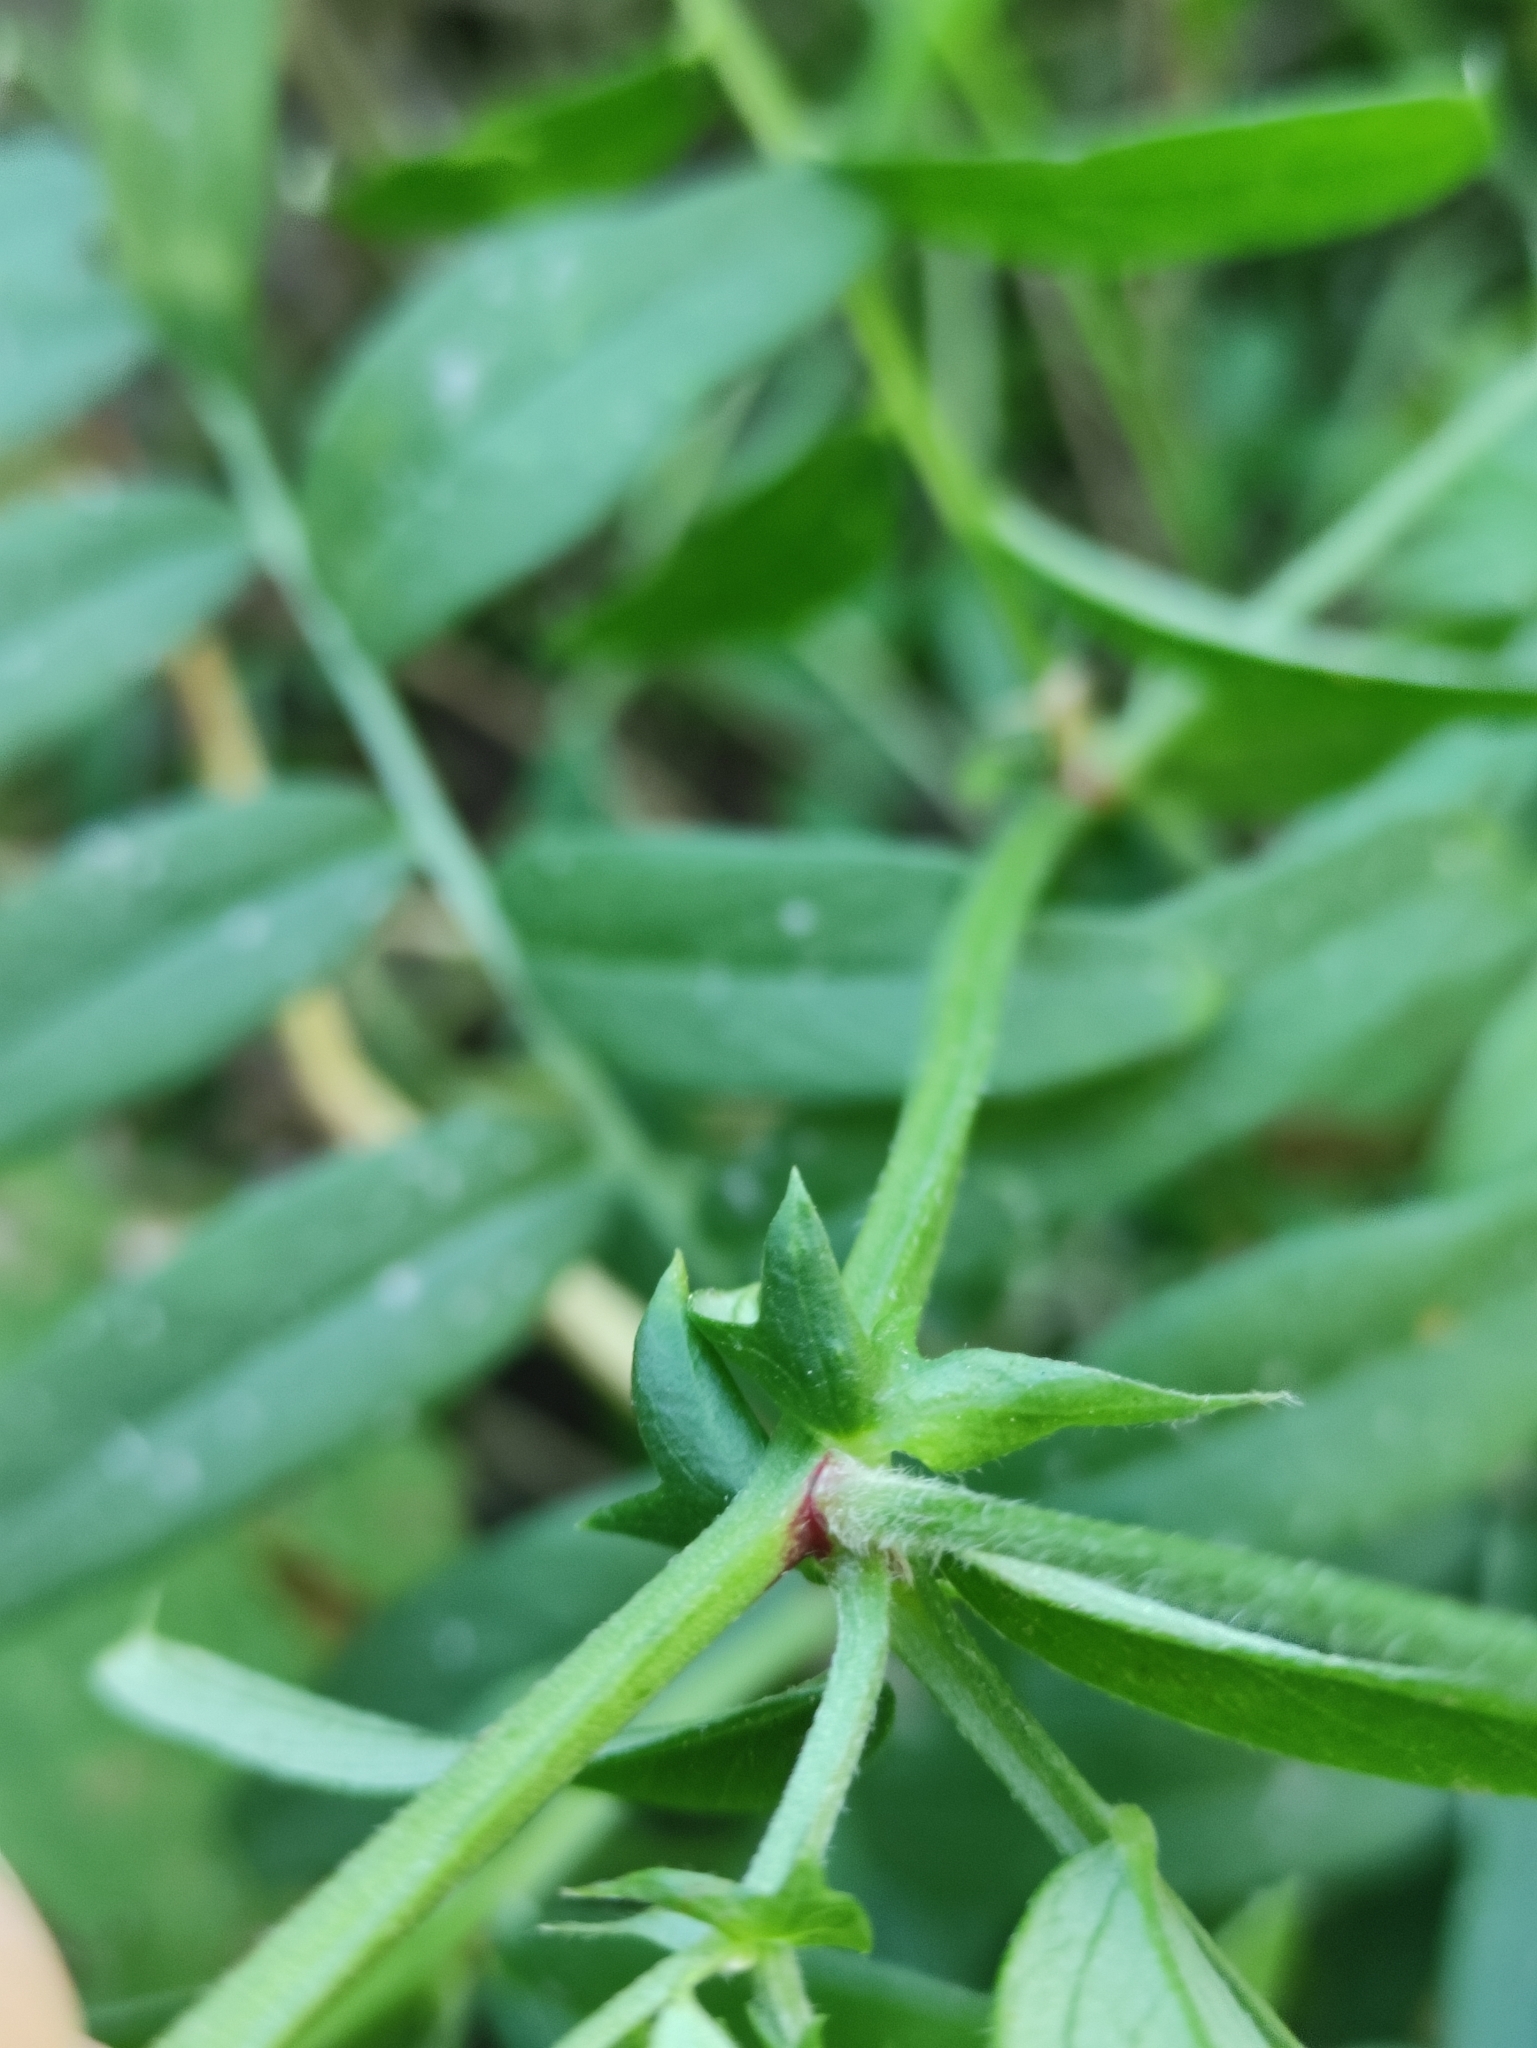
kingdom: Plantae
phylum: Tracheophyta
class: Magnoliopsida
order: Fabales
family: Fabaceae
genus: Vicia
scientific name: Vicia amoena
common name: Cheder ebs
